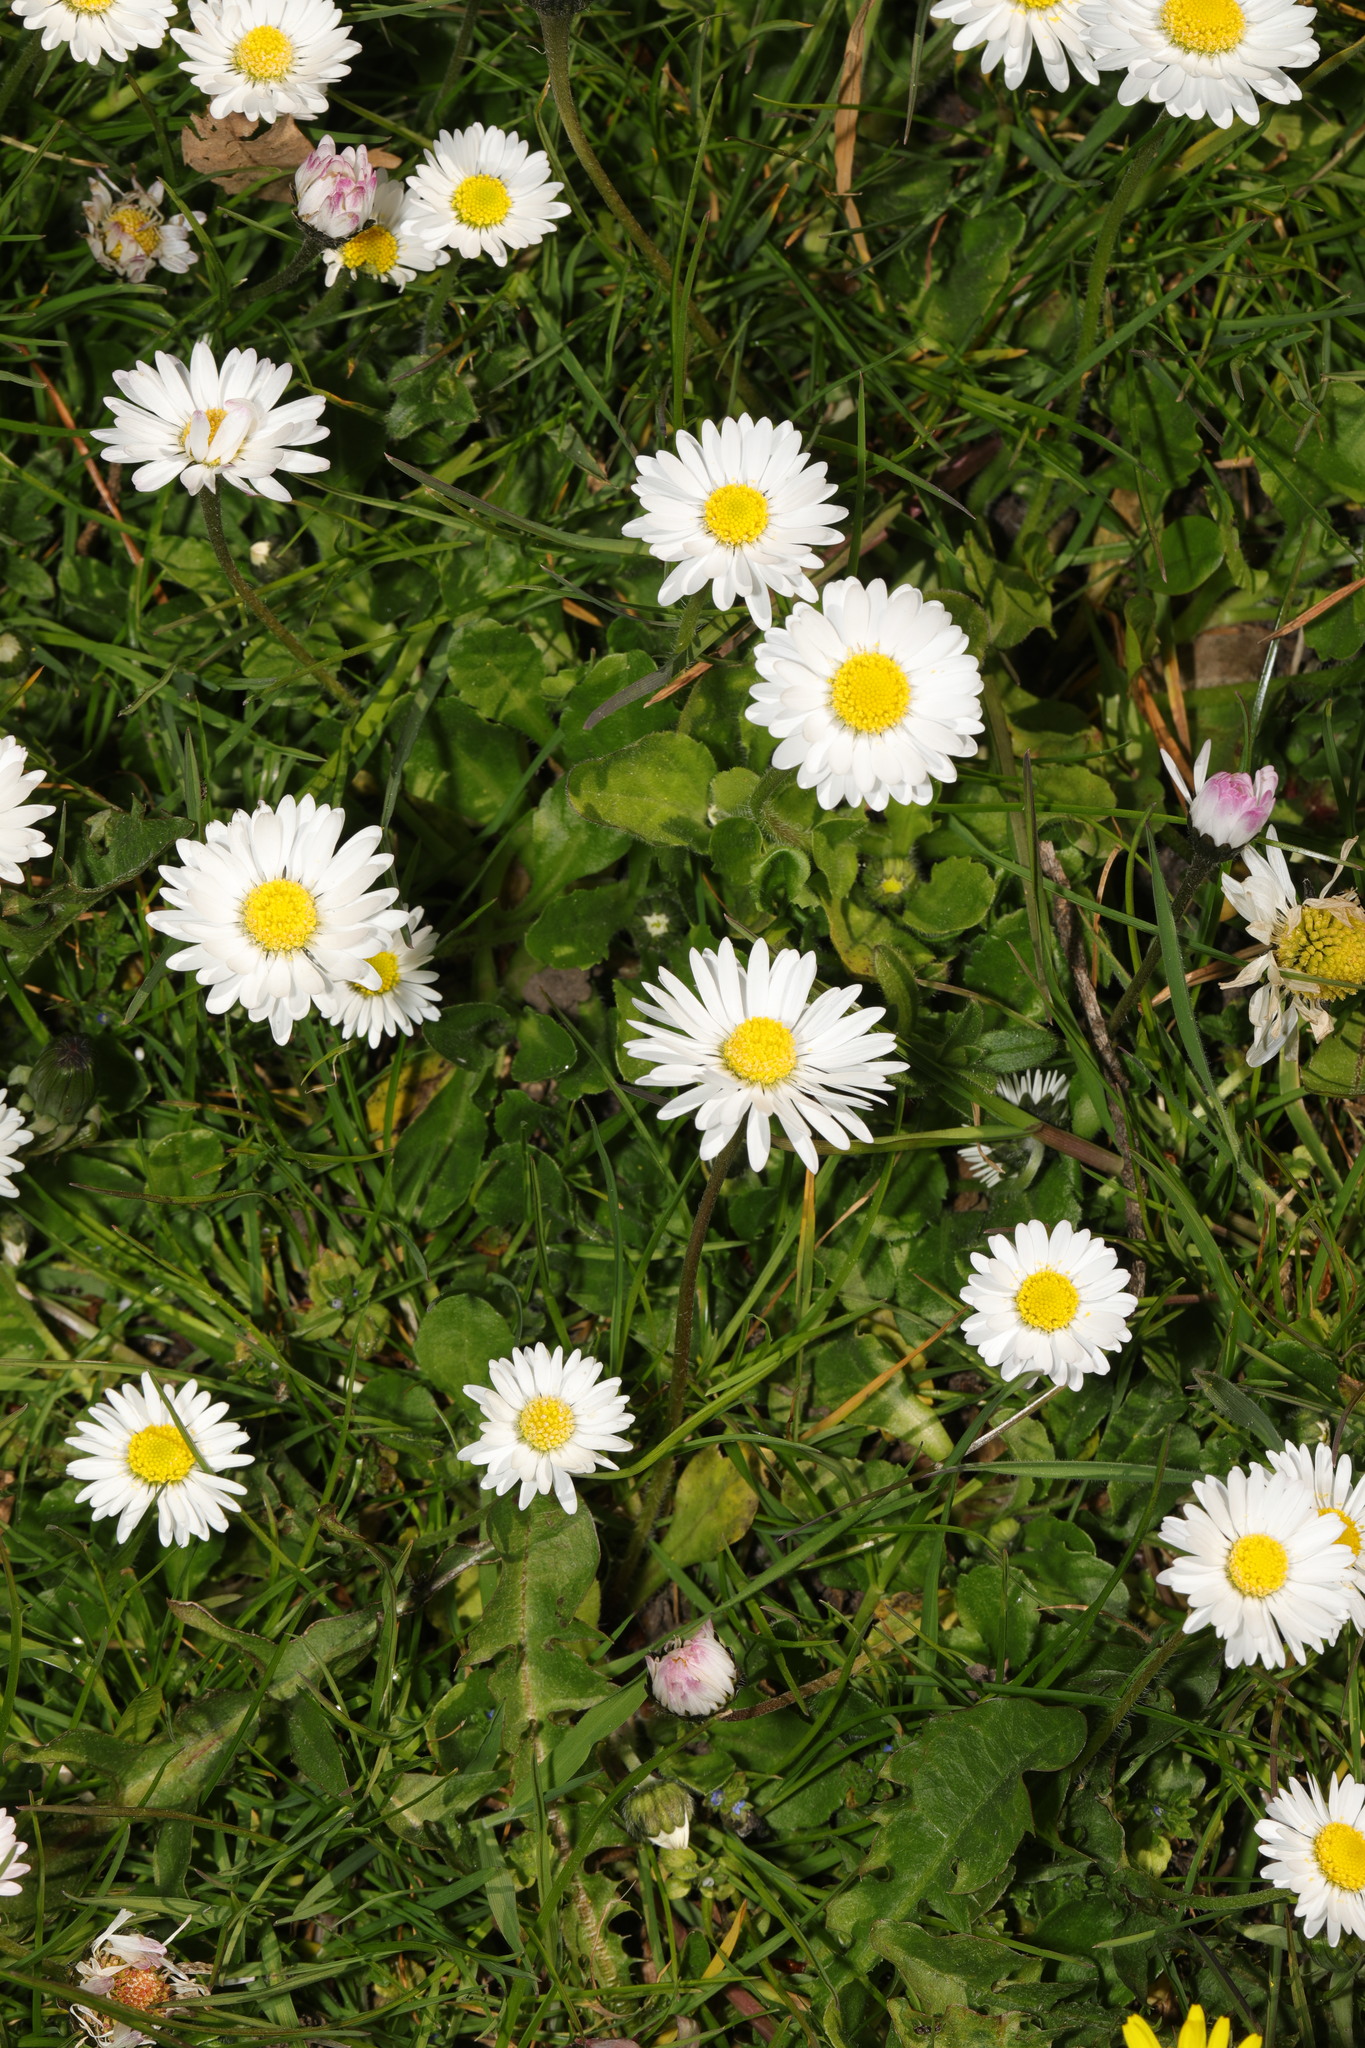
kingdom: Plantae
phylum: Tracheophyta
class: Magnoliopsida
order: Asterales
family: Asteraceae
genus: Bellis
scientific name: Bellis perennis
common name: Lawndaisy
